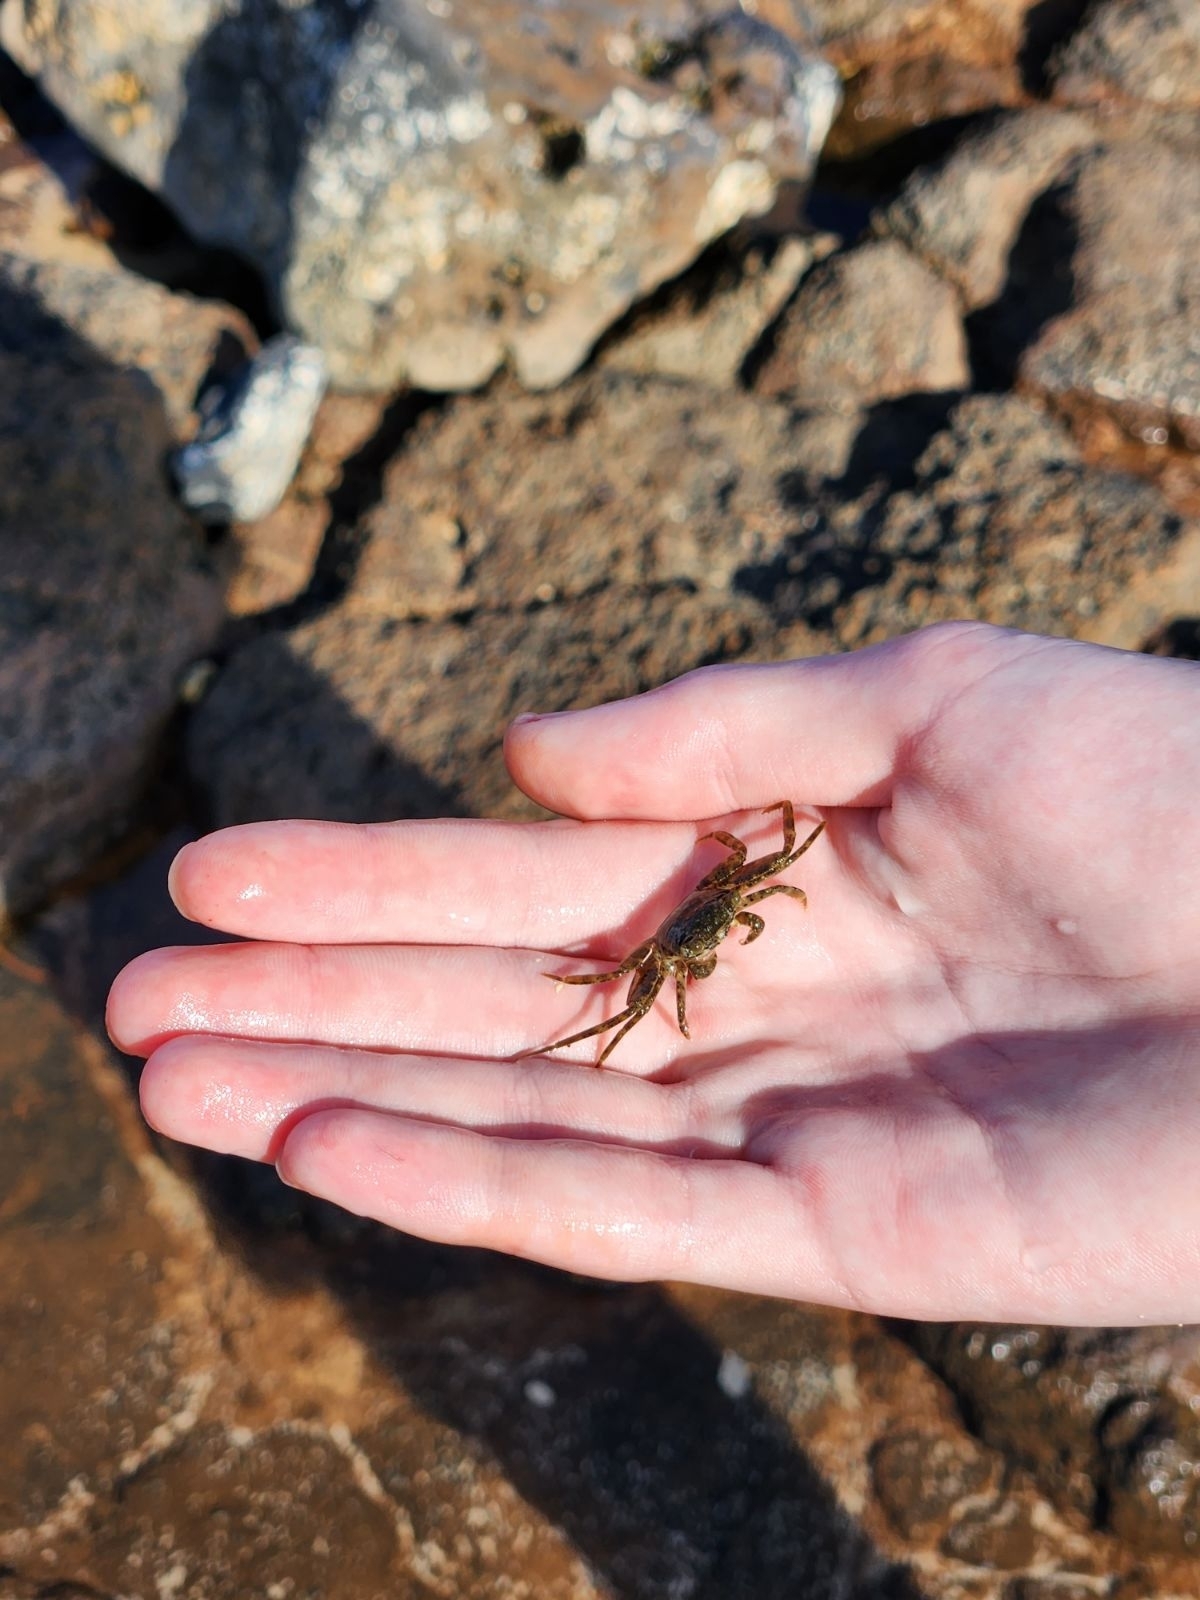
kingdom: Animalia
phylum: Arthropoda
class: Malacostraca
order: Decapoda
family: Grapsidae
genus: Grapsus
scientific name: Grapsus tenuicrustatus
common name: Natal lightfoot crab
